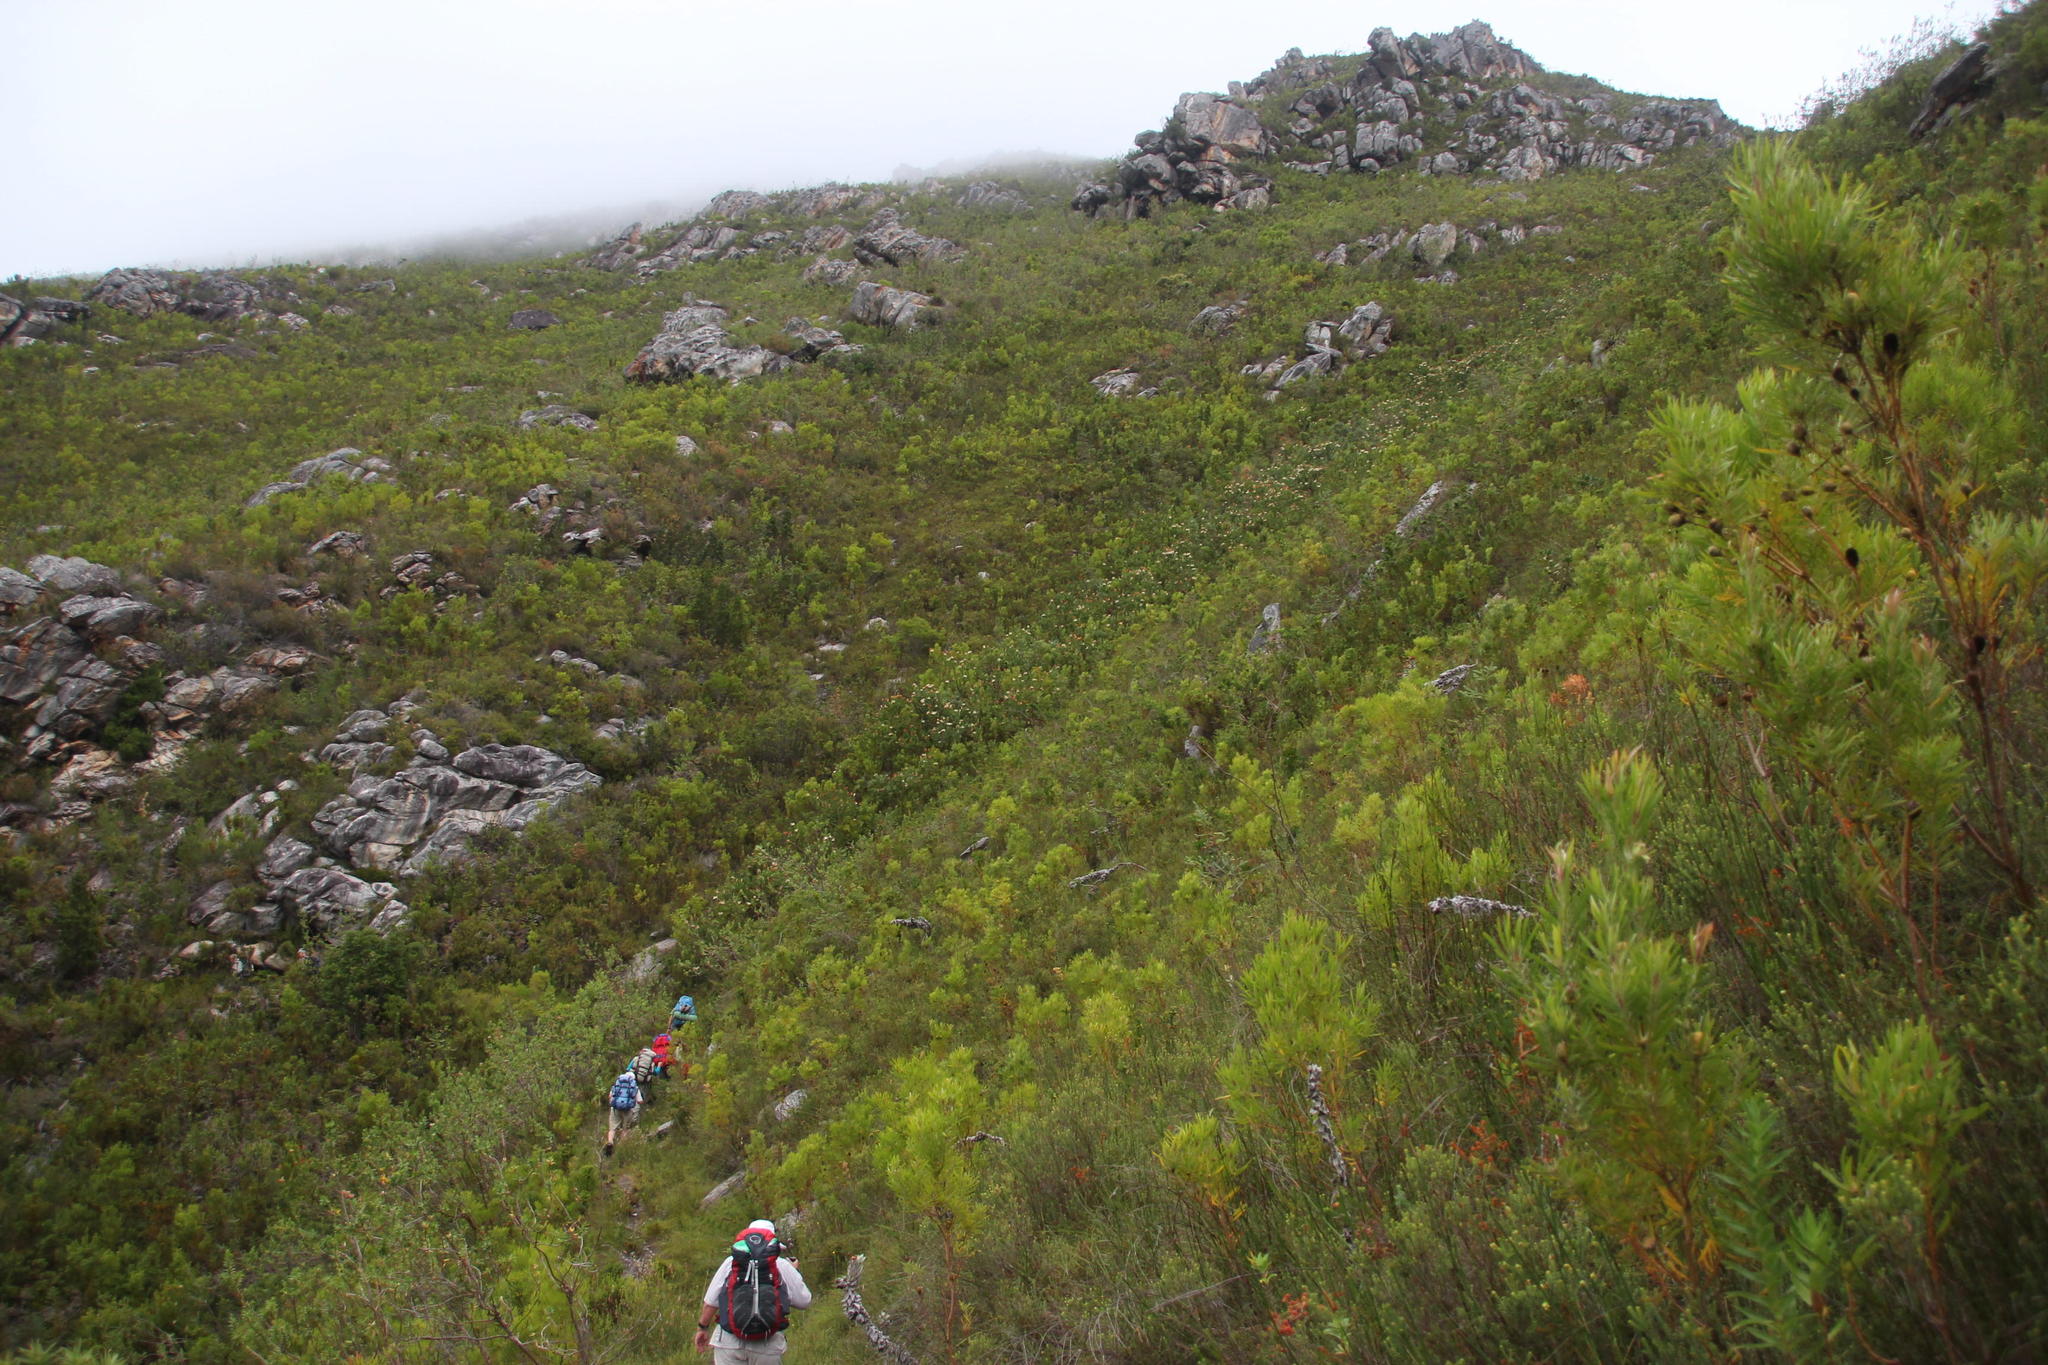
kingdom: Plantae
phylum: Tracheophyta
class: Magnoliopsida
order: Proteales
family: Proteaceae
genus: Protea
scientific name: Protea aurea
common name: Shuttlecock sugarbush
